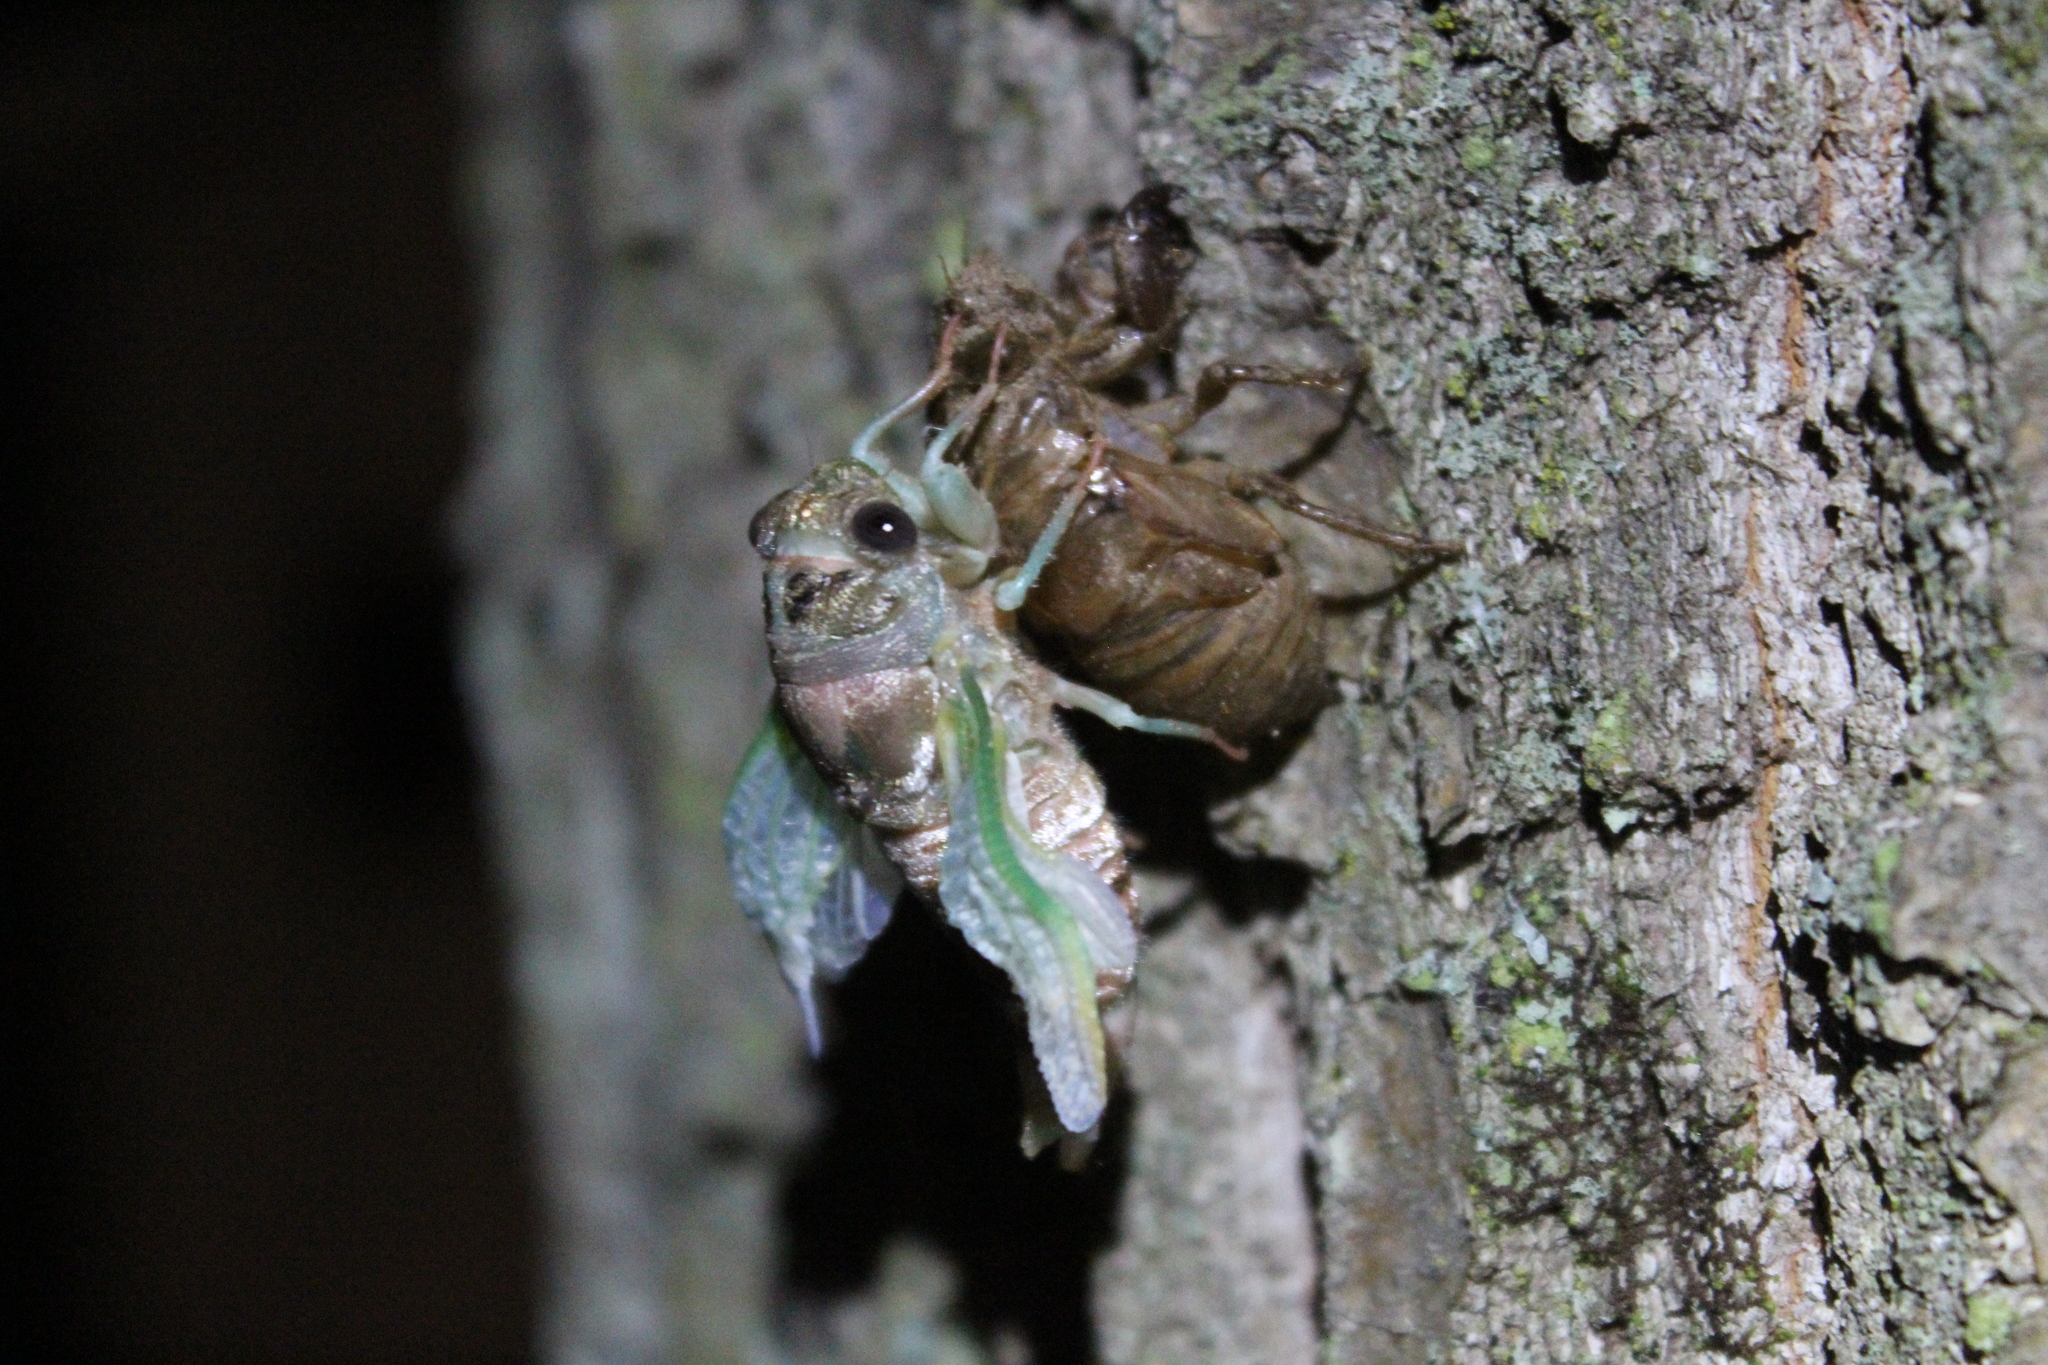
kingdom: Animalia
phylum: Arthropoda
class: Insecta
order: Hemiptera
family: Cicadidae
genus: Neotibicen
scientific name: Neotibicen canicularis
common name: God-day cicada
